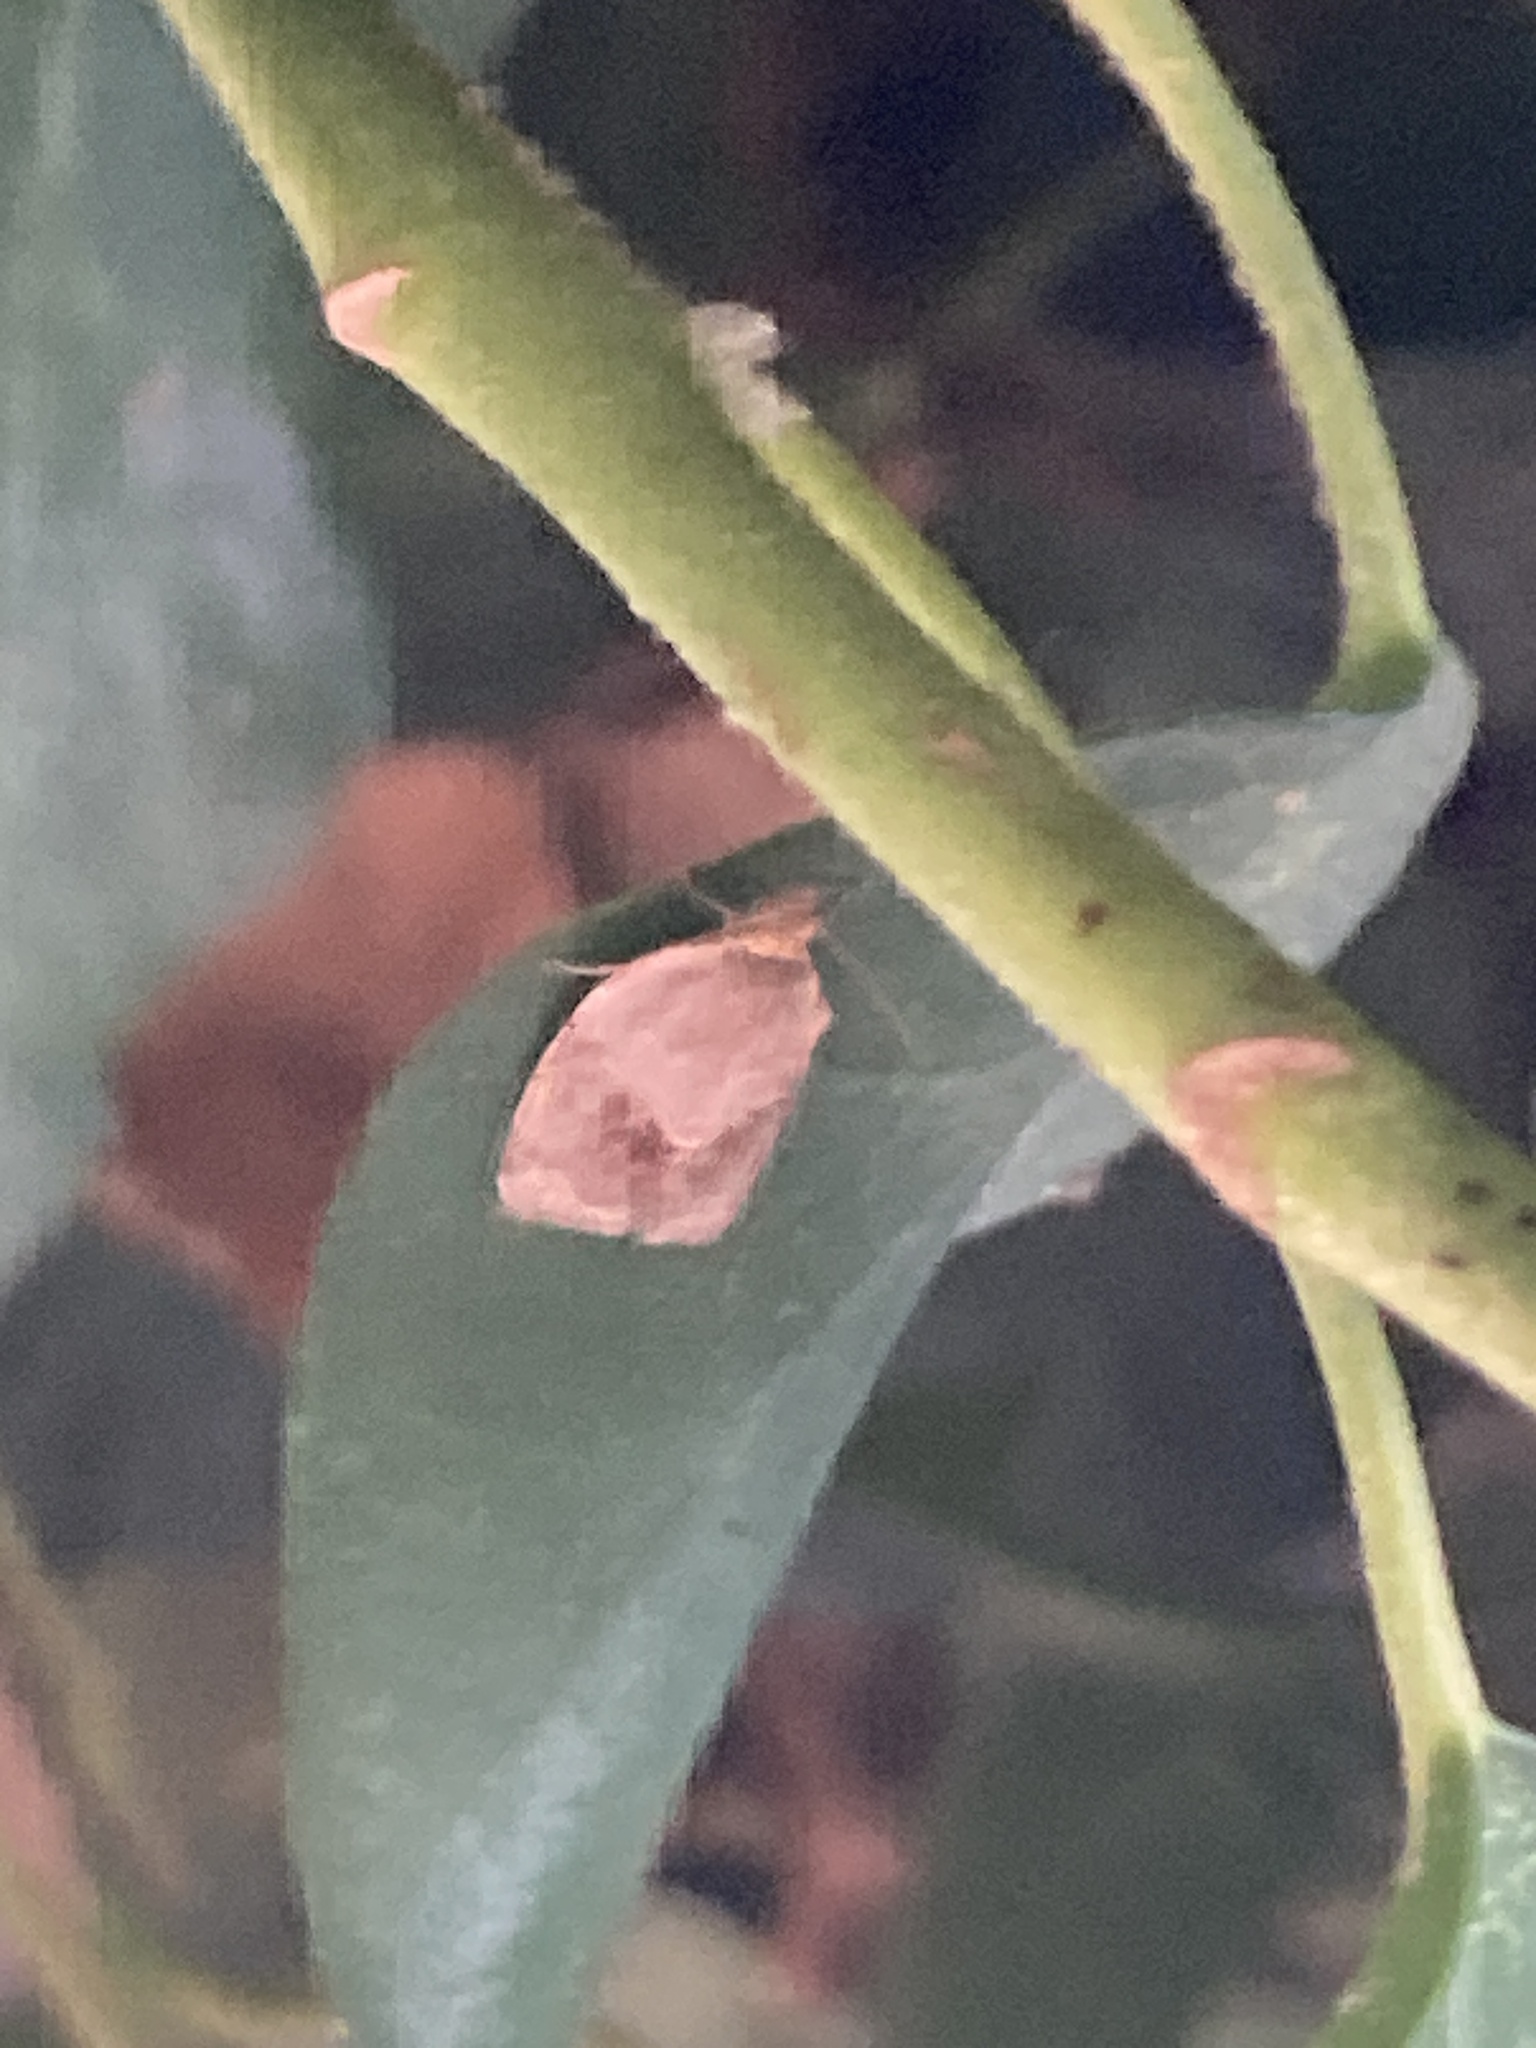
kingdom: Animalia
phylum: Arthropoda
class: Insecta
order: Lepidoptera
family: Tortricidae
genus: Clepsis
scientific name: Clepsis dumicolana
